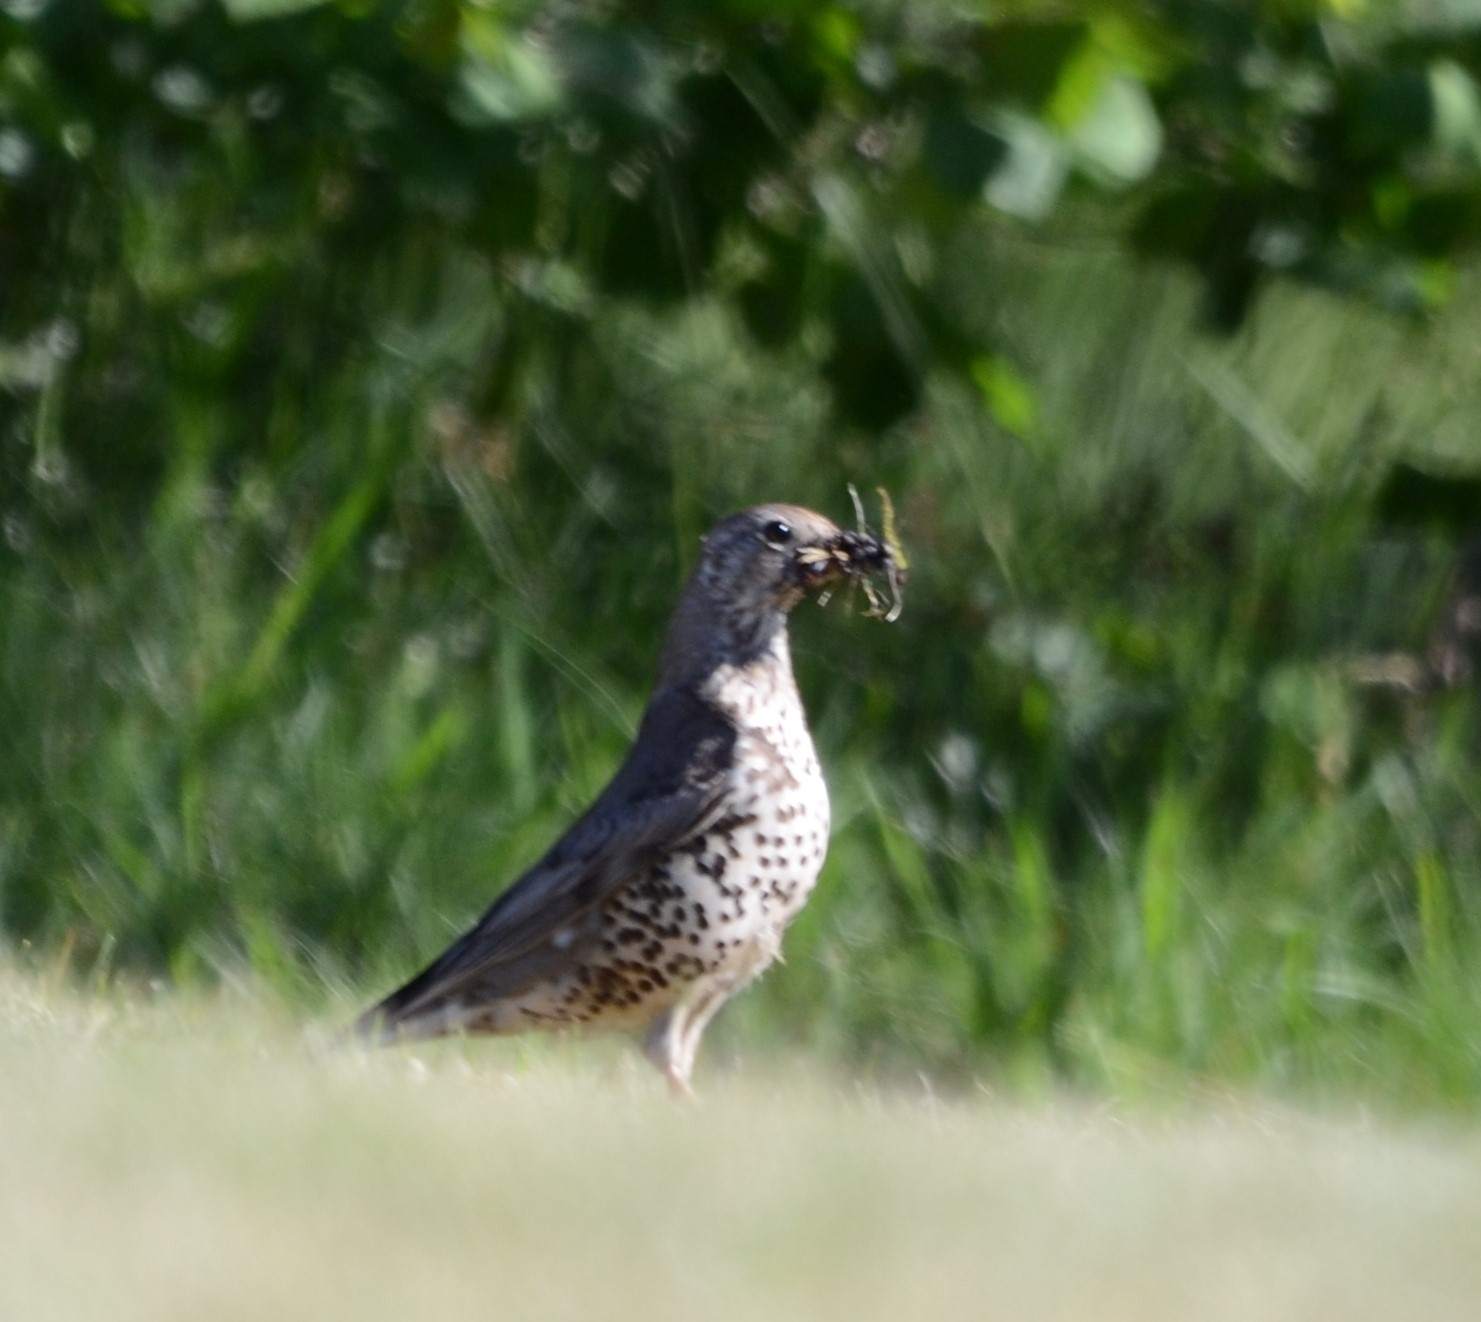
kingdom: Animalia
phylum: Chordata
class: Aves
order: Passeriformes
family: Turdidae
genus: Turdus
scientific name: Turdus viscivorus
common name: Mistle thrush
